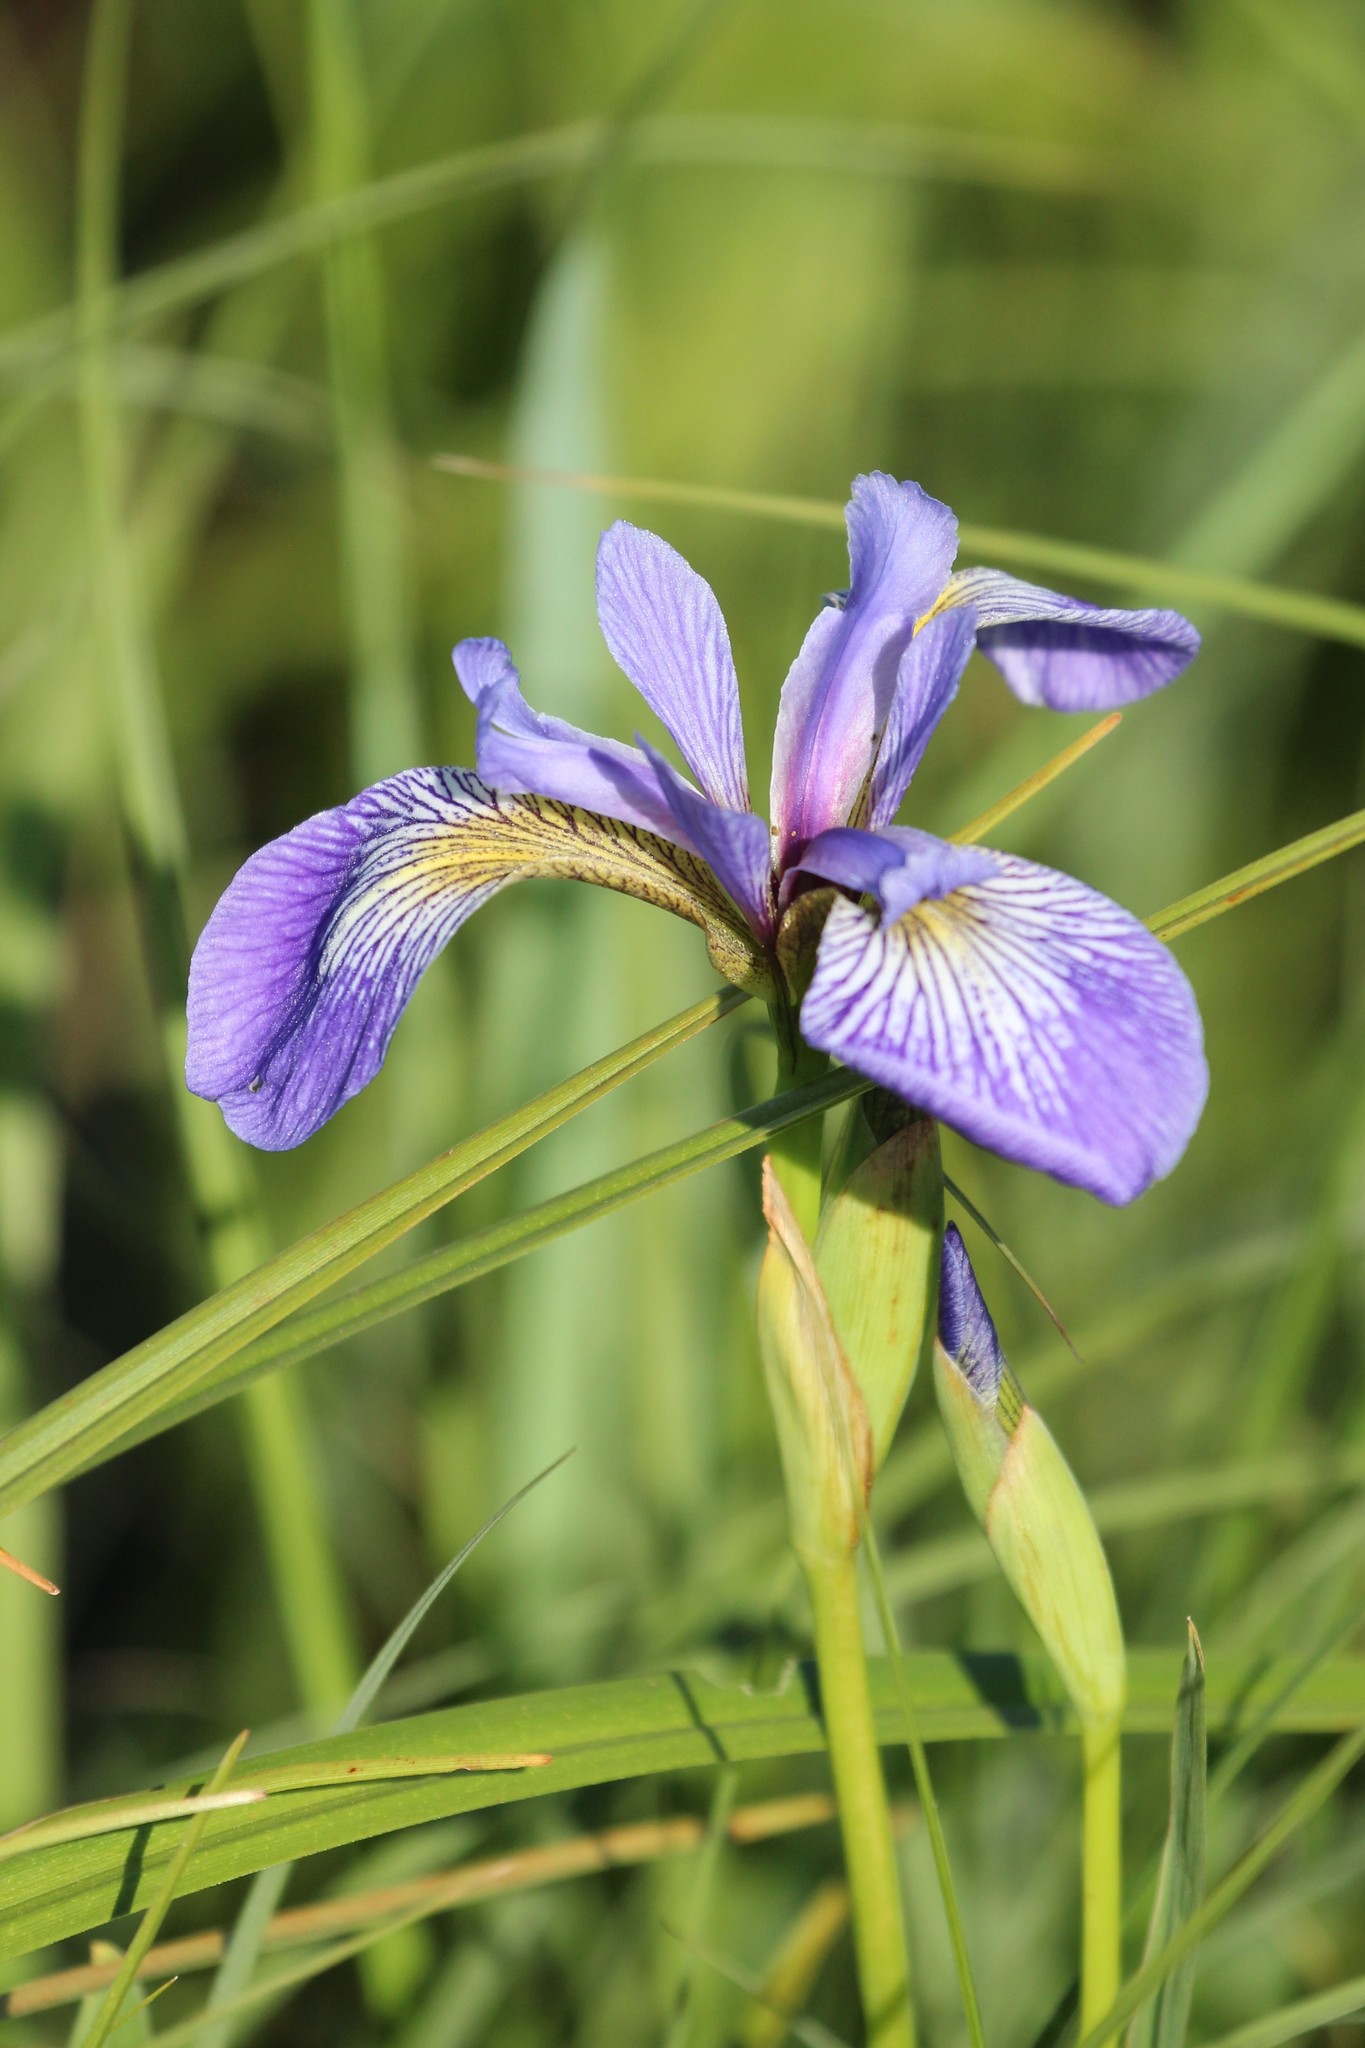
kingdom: Plantae
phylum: Tracheophyta
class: Liliopsida
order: Asparagales
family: Iridaceae
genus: Iris
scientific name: Iris versicolor
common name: Purple iris
